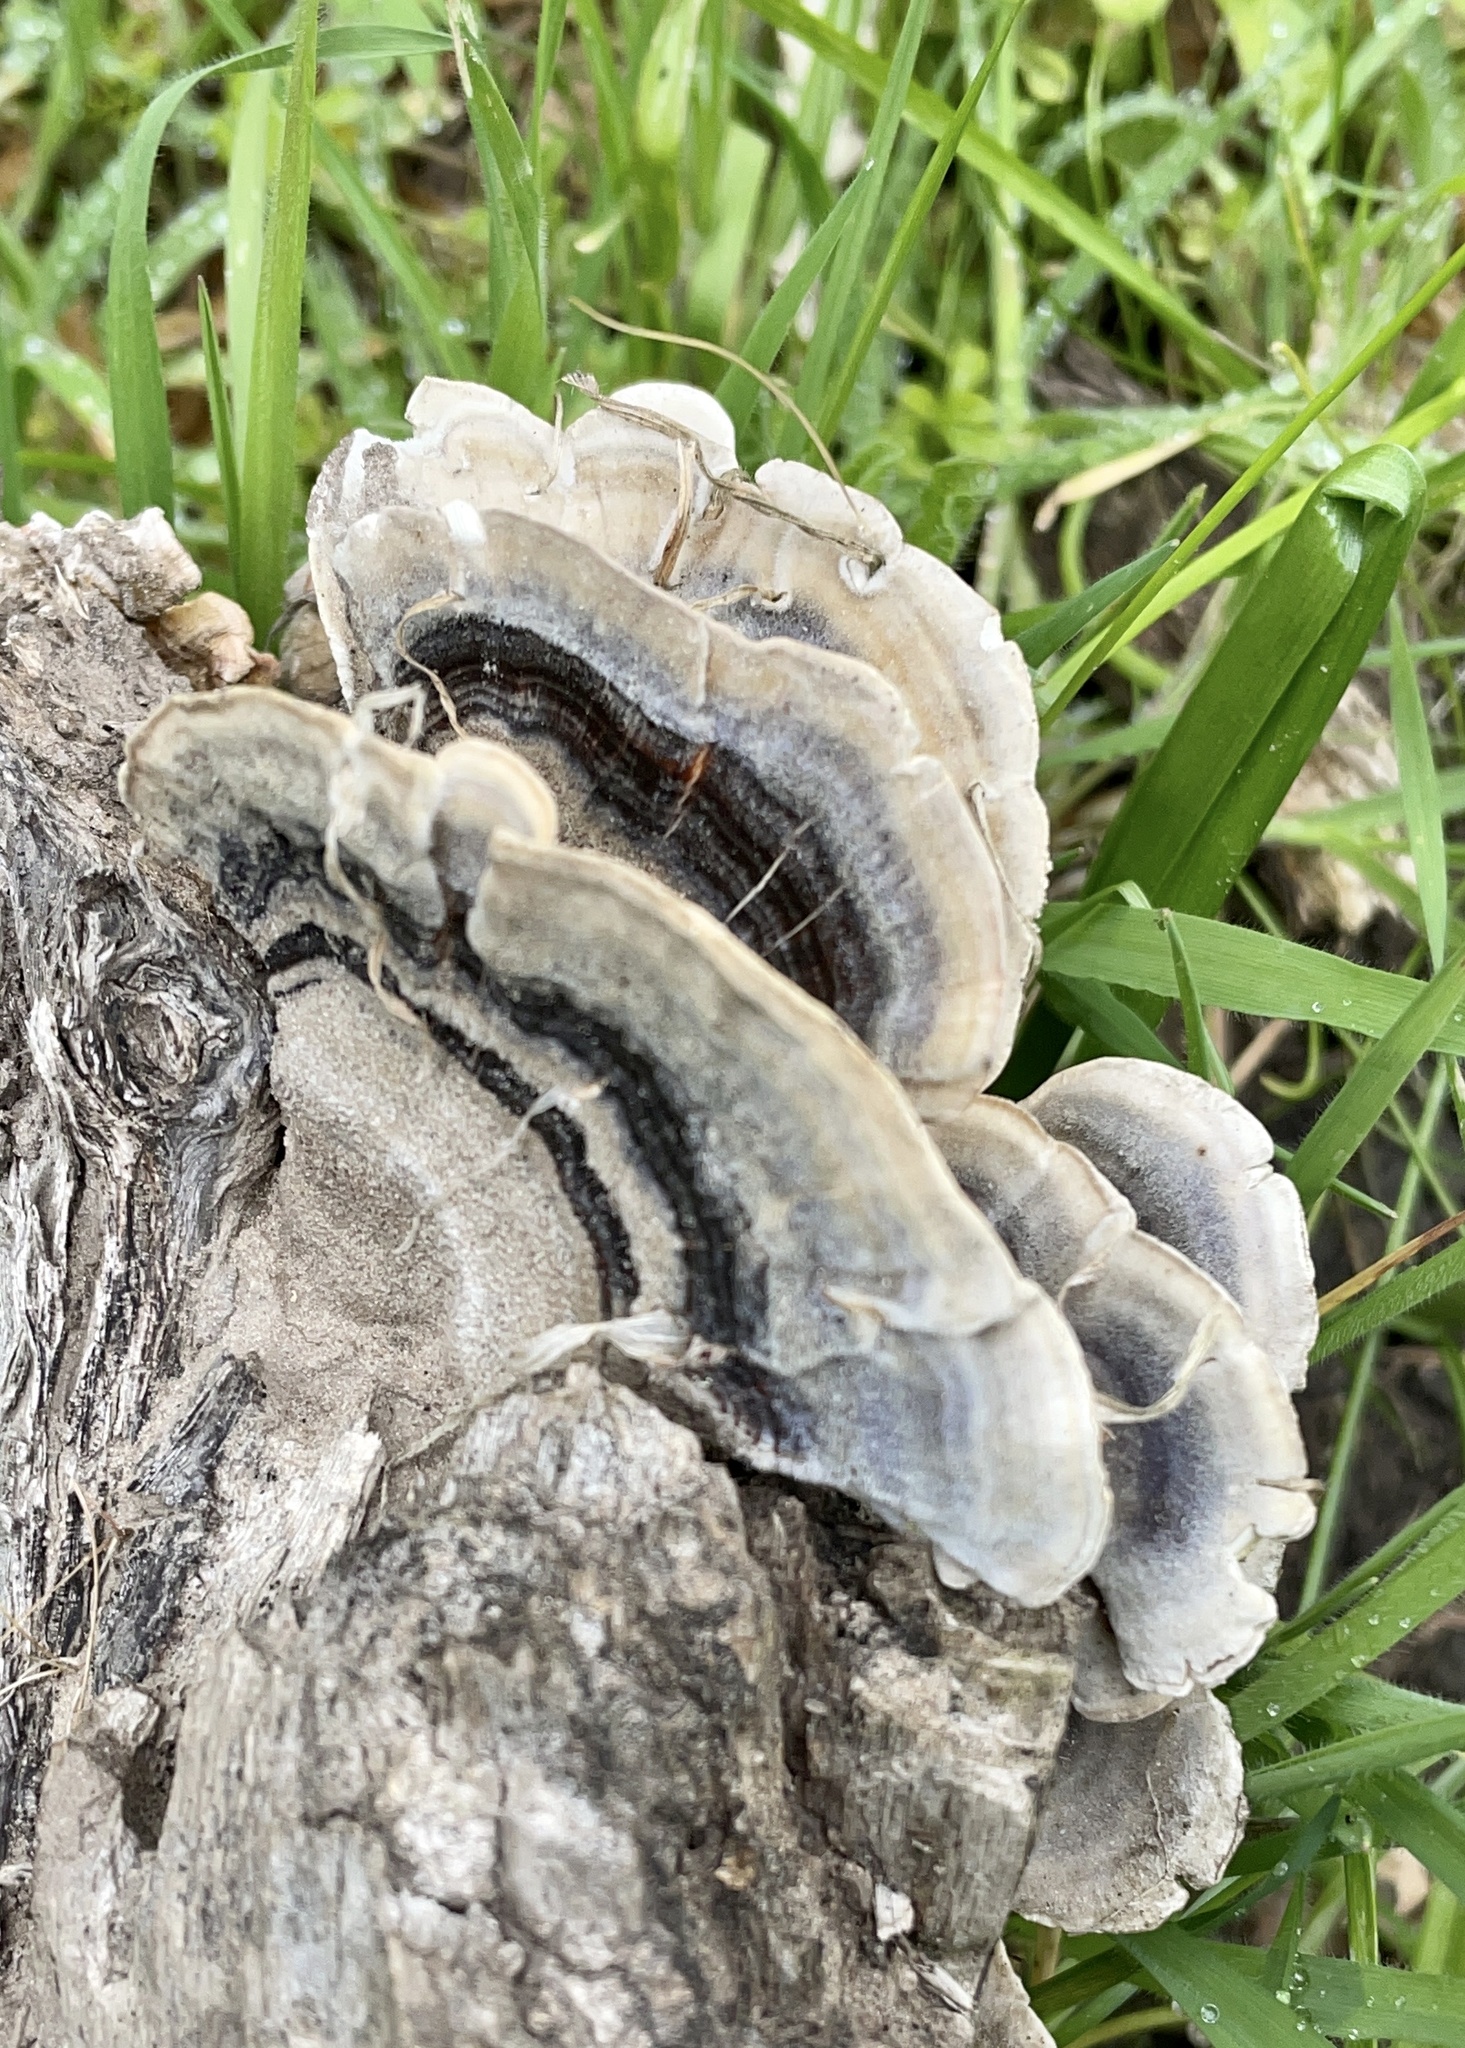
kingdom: Fungi
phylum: Basidiomycota
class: Agaricomycetes
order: Polyporales
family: Polyporaceae
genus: Trametes
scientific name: Trametes versicolor
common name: Turkeytail
